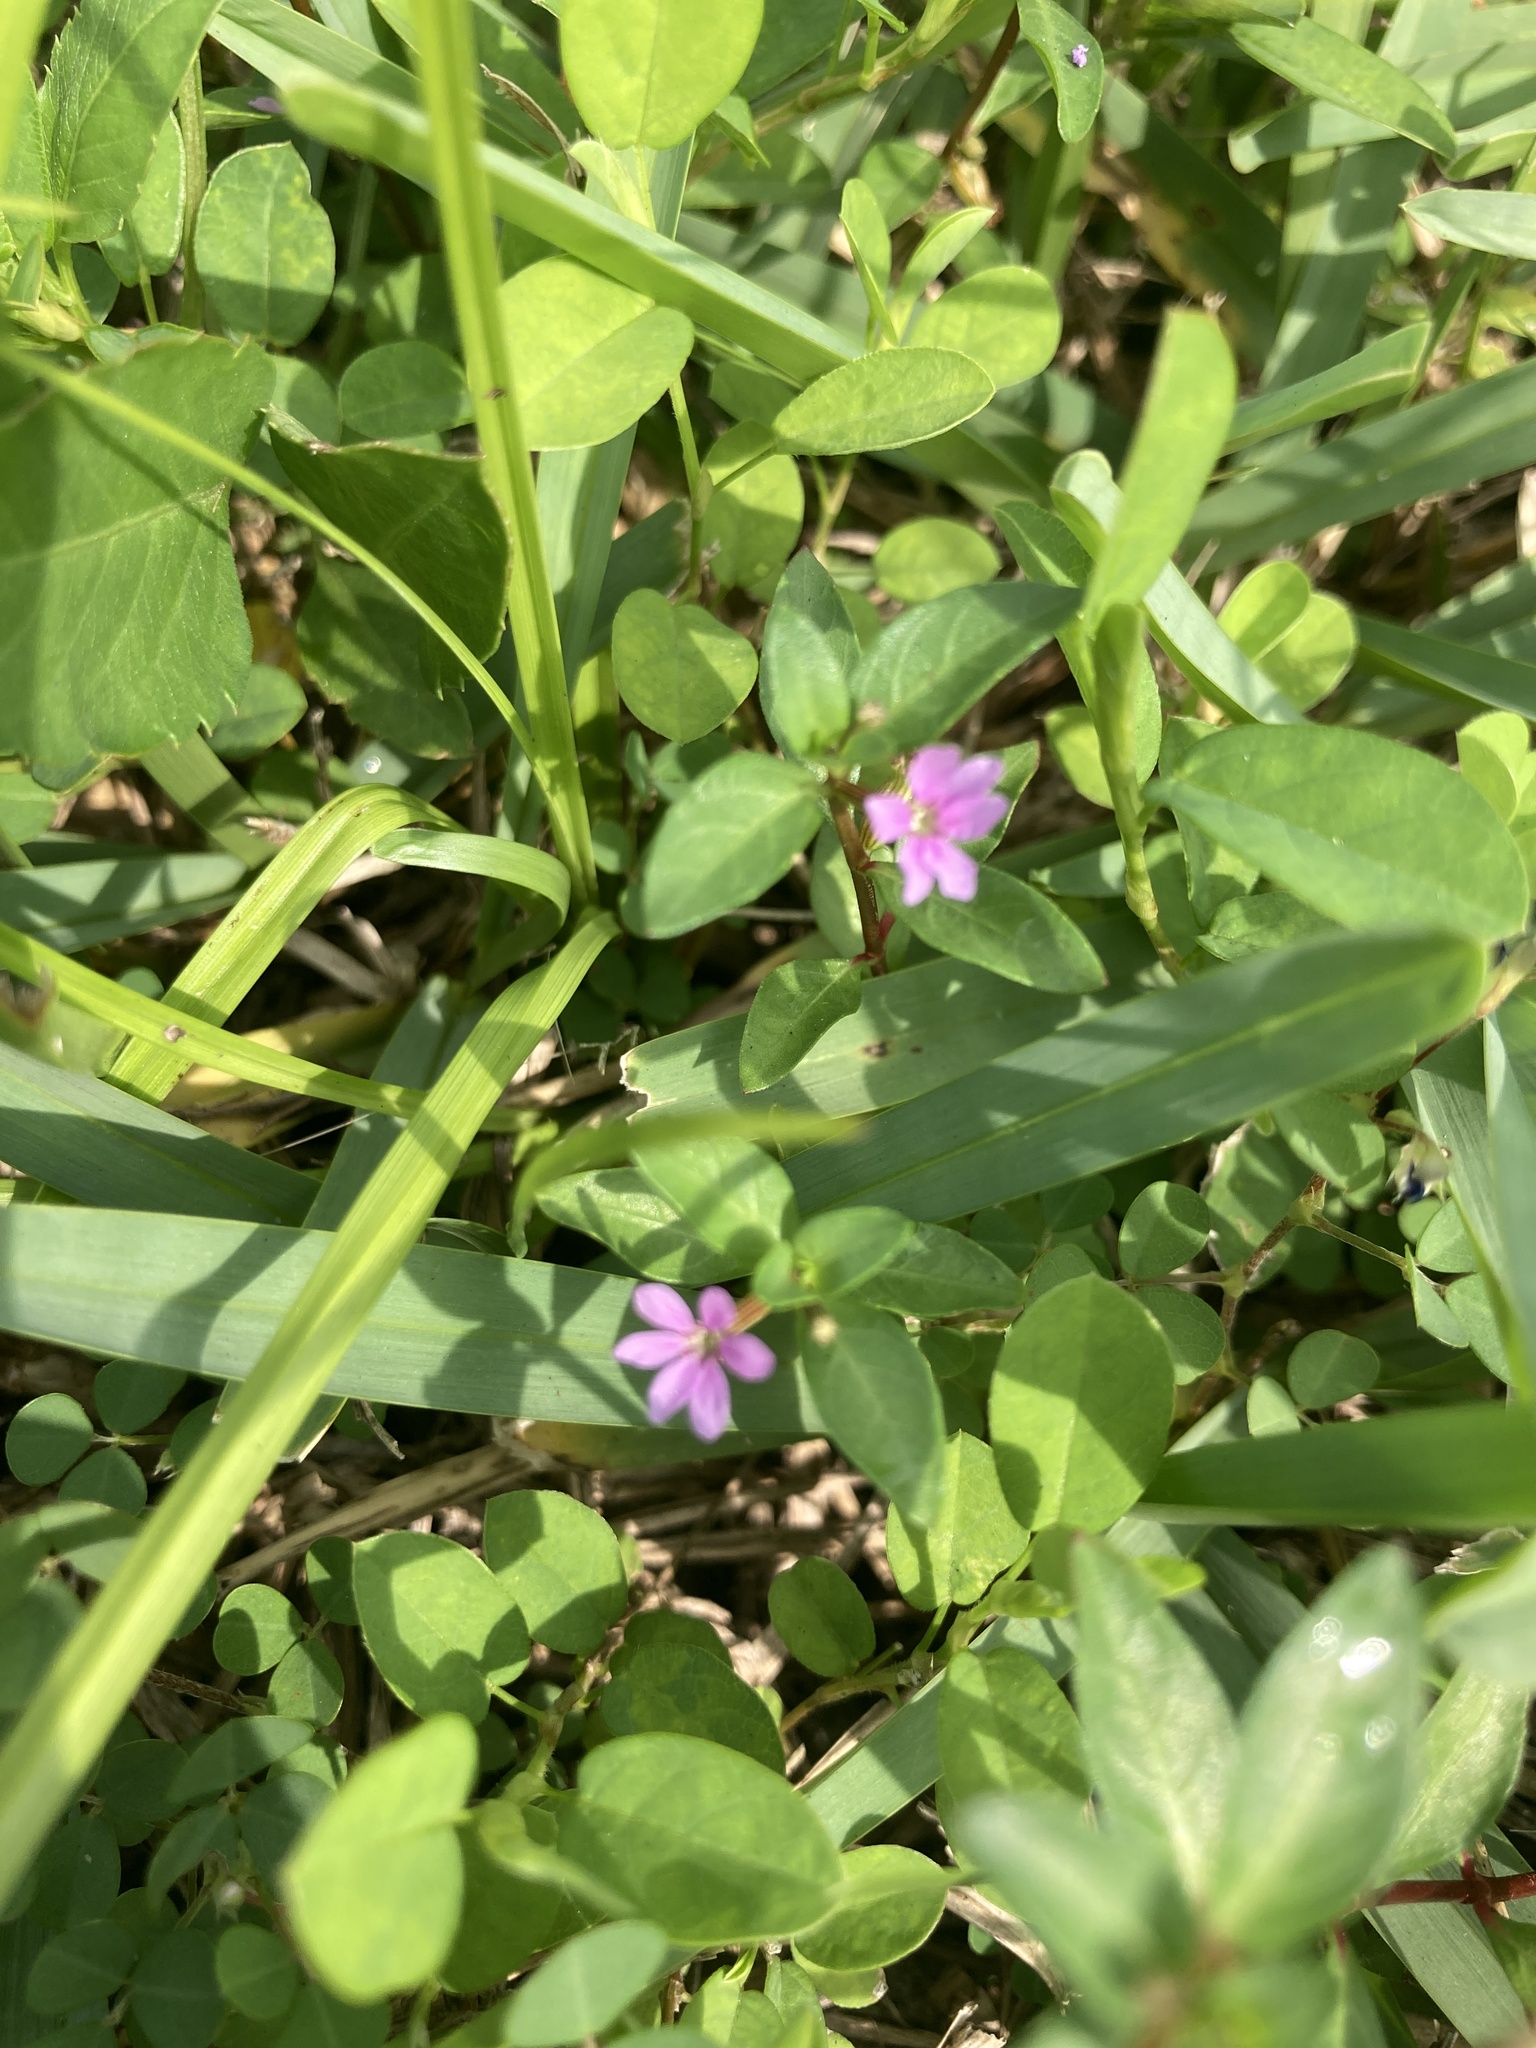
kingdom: Plantae
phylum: Tracheophyta
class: Magnoliopsida
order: Myrtales
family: Lythraceae
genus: Cuphea
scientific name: Cuphea carthagenensis
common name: Colombian waxweed
